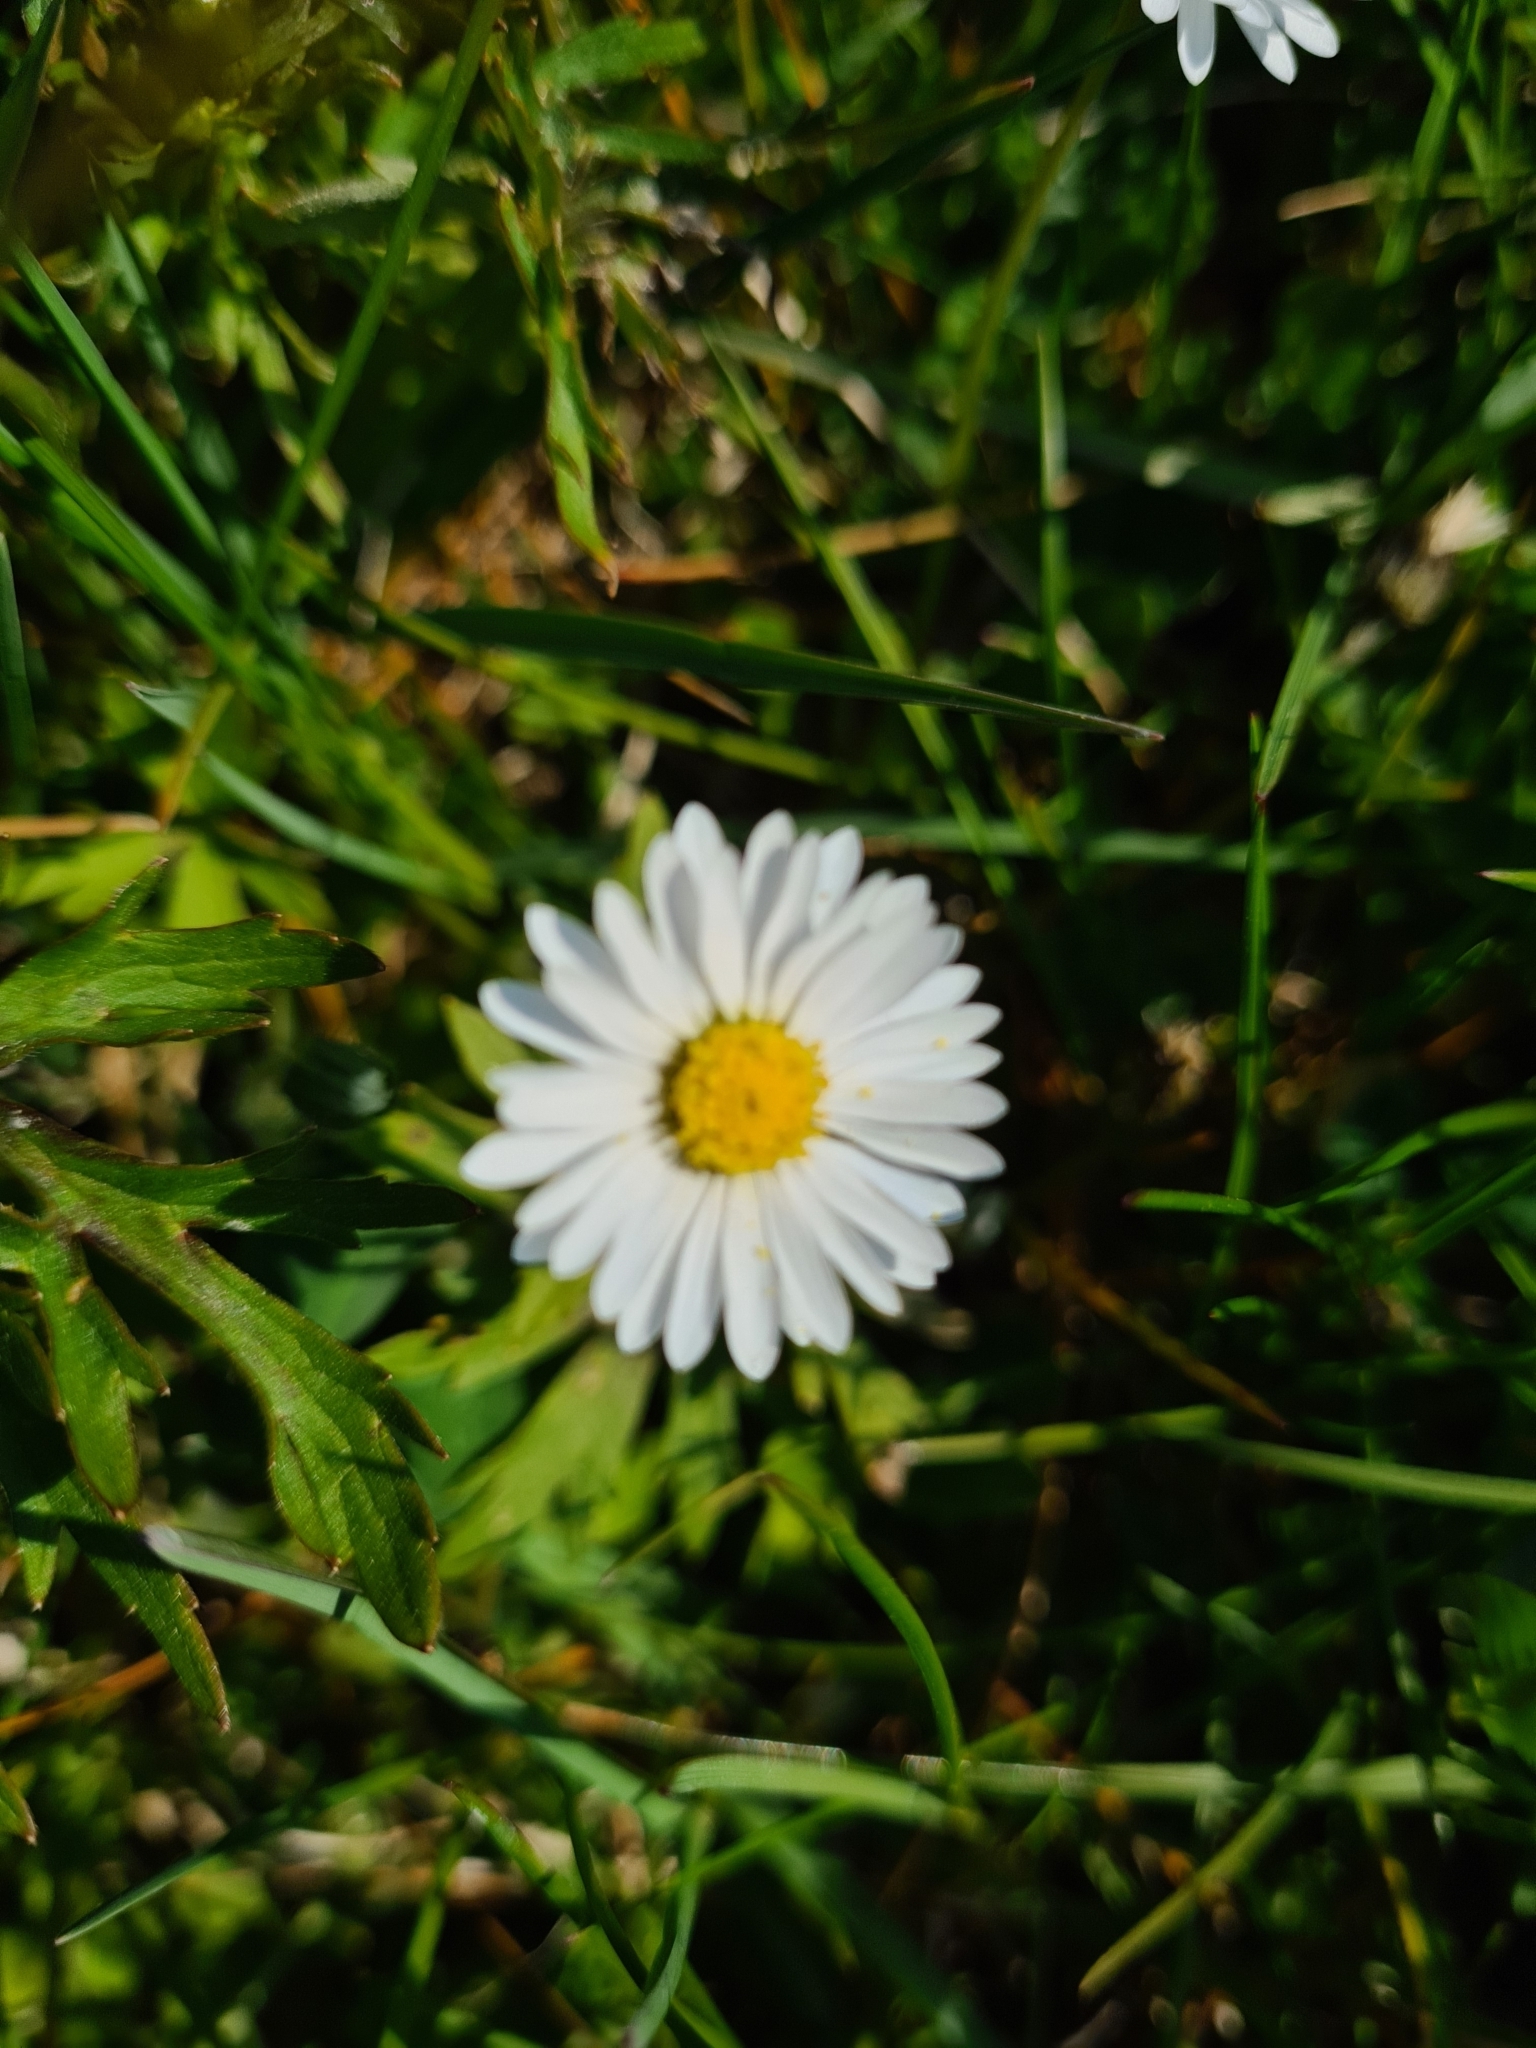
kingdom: Plantae
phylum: Tracheophyta
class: Magnoliopsida
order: Asterales
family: Asteraceae
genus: Bellis
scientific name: Bellis perennis
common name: Lawndaisy
